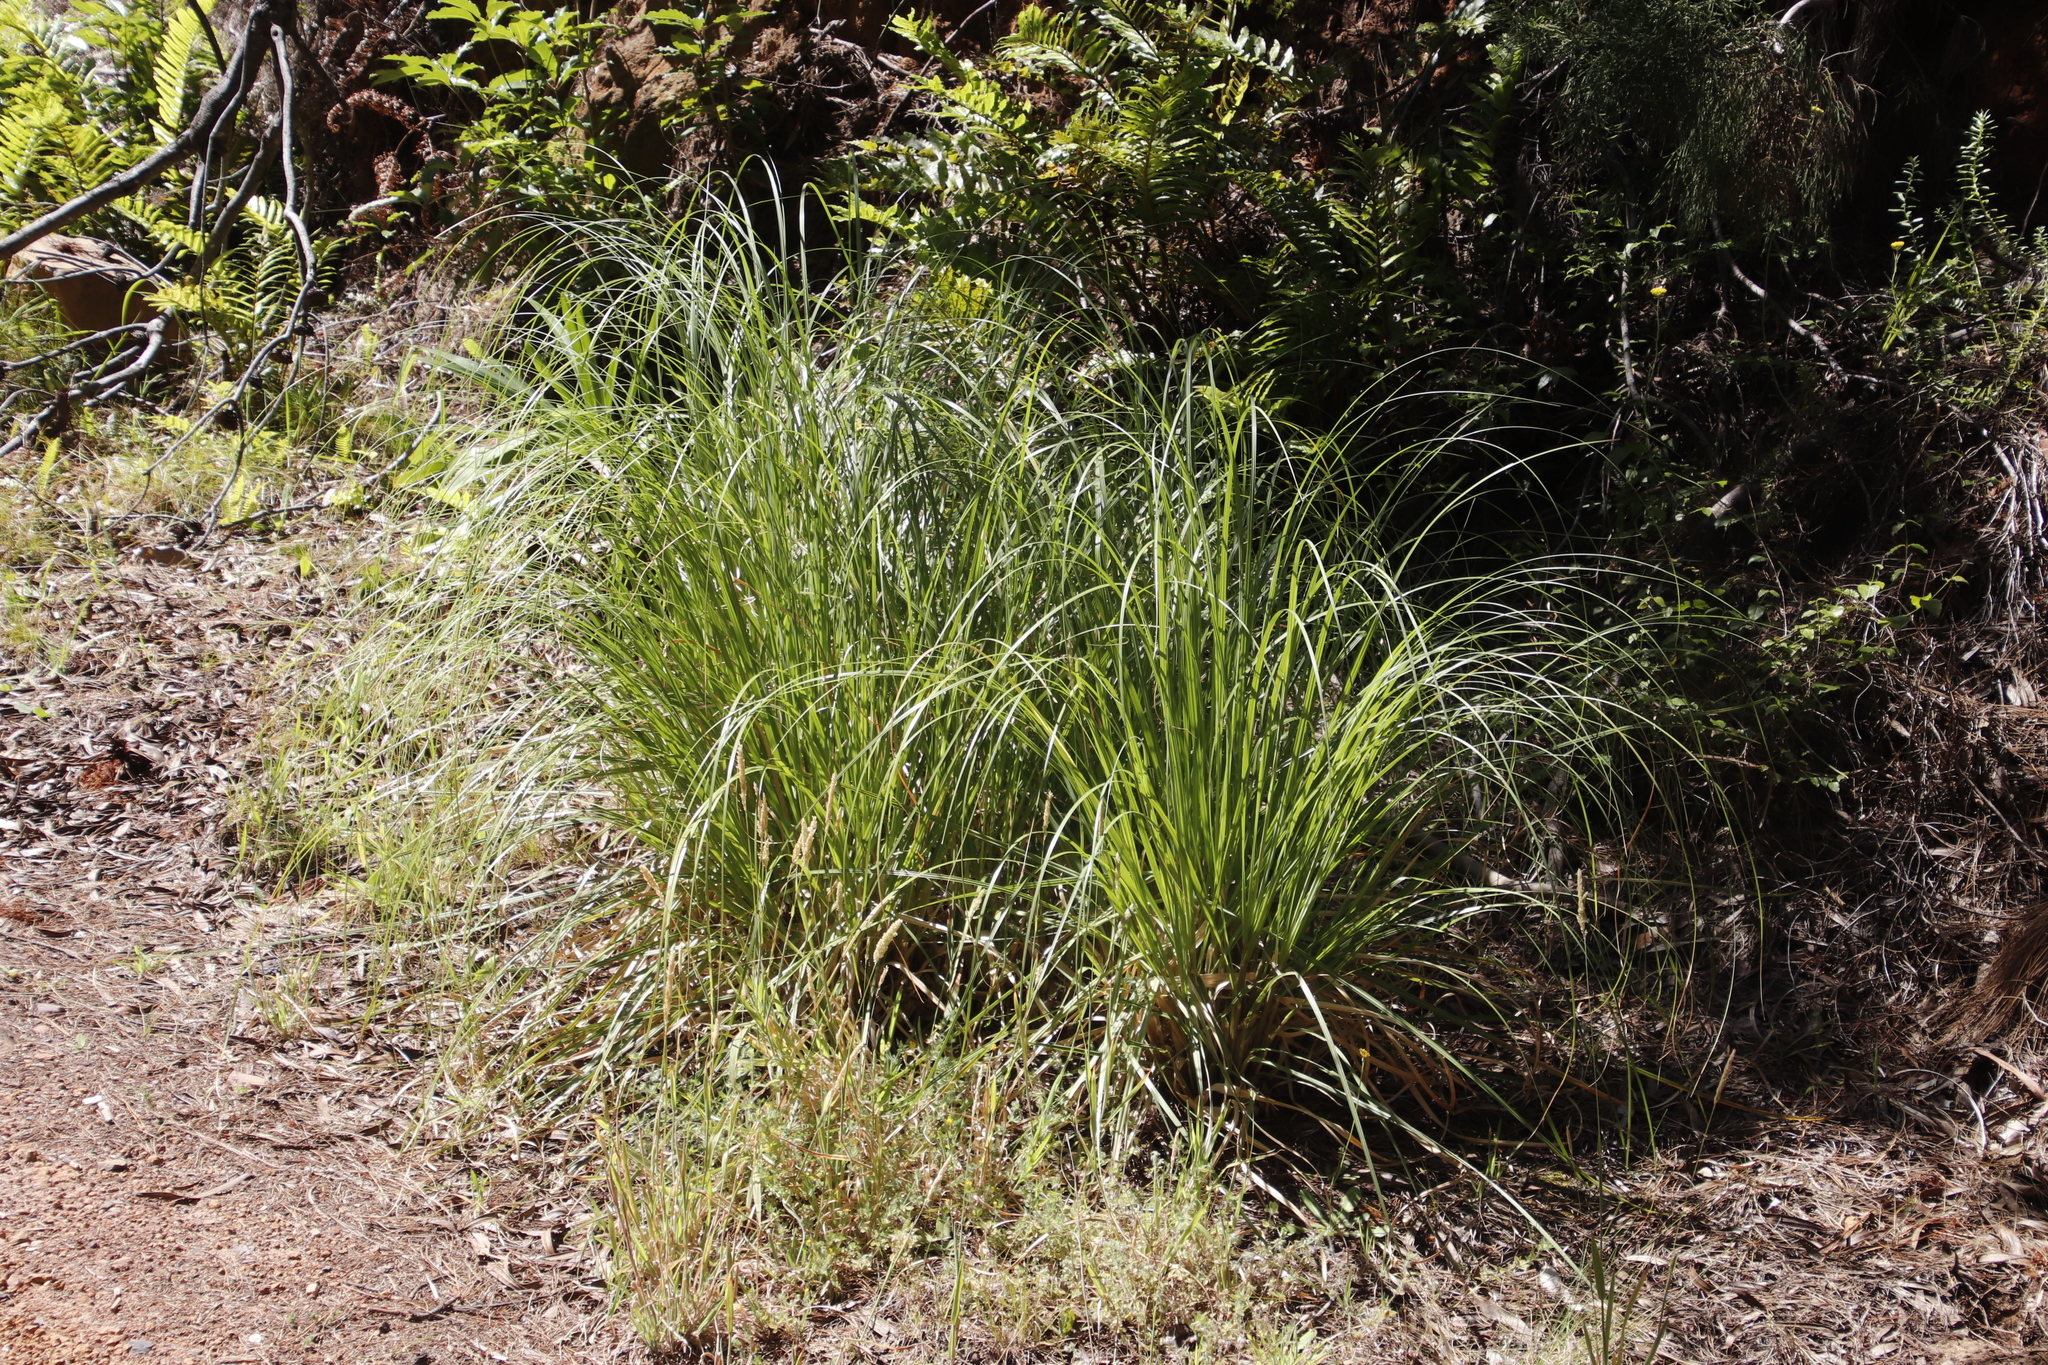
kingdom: Plantae
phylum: Tracheophyta
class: Liliopsida
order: Poales
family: Poaceae
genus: Cortaderia
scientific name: Cortaderia selloana
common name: Uruguayan pampas grass
